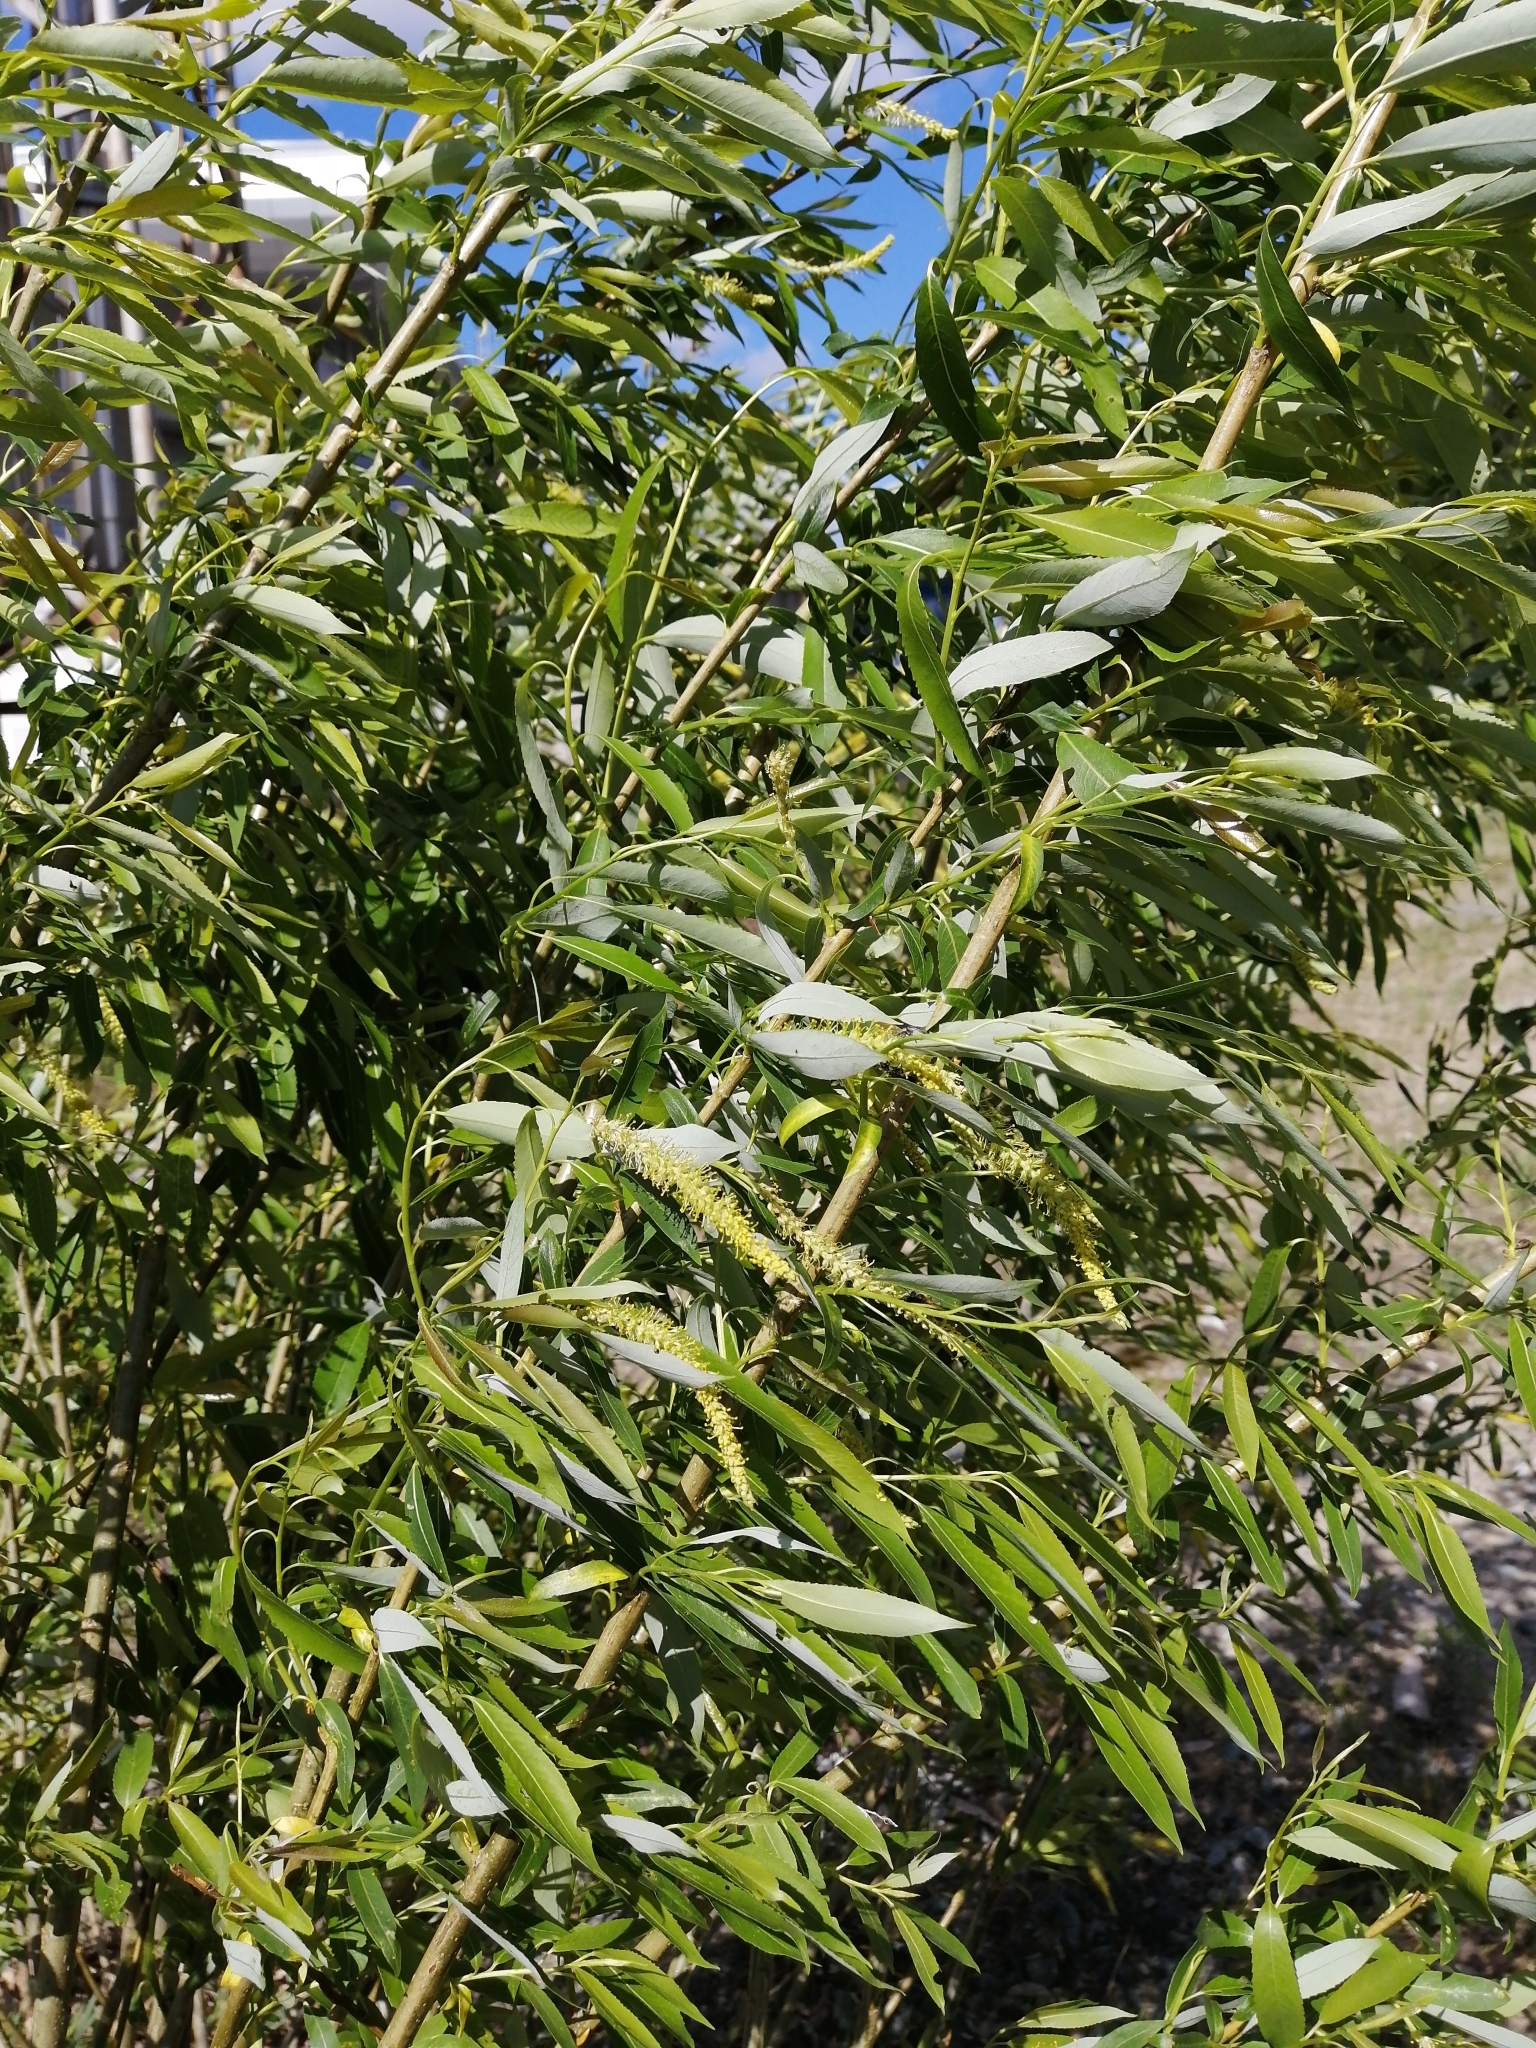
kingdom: Plantae
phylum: Tracheophyta
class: Magnoliopsida
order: Malpighiales
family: Salicaceae
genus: Salix
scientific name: Salix triandra
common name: Almond willow
